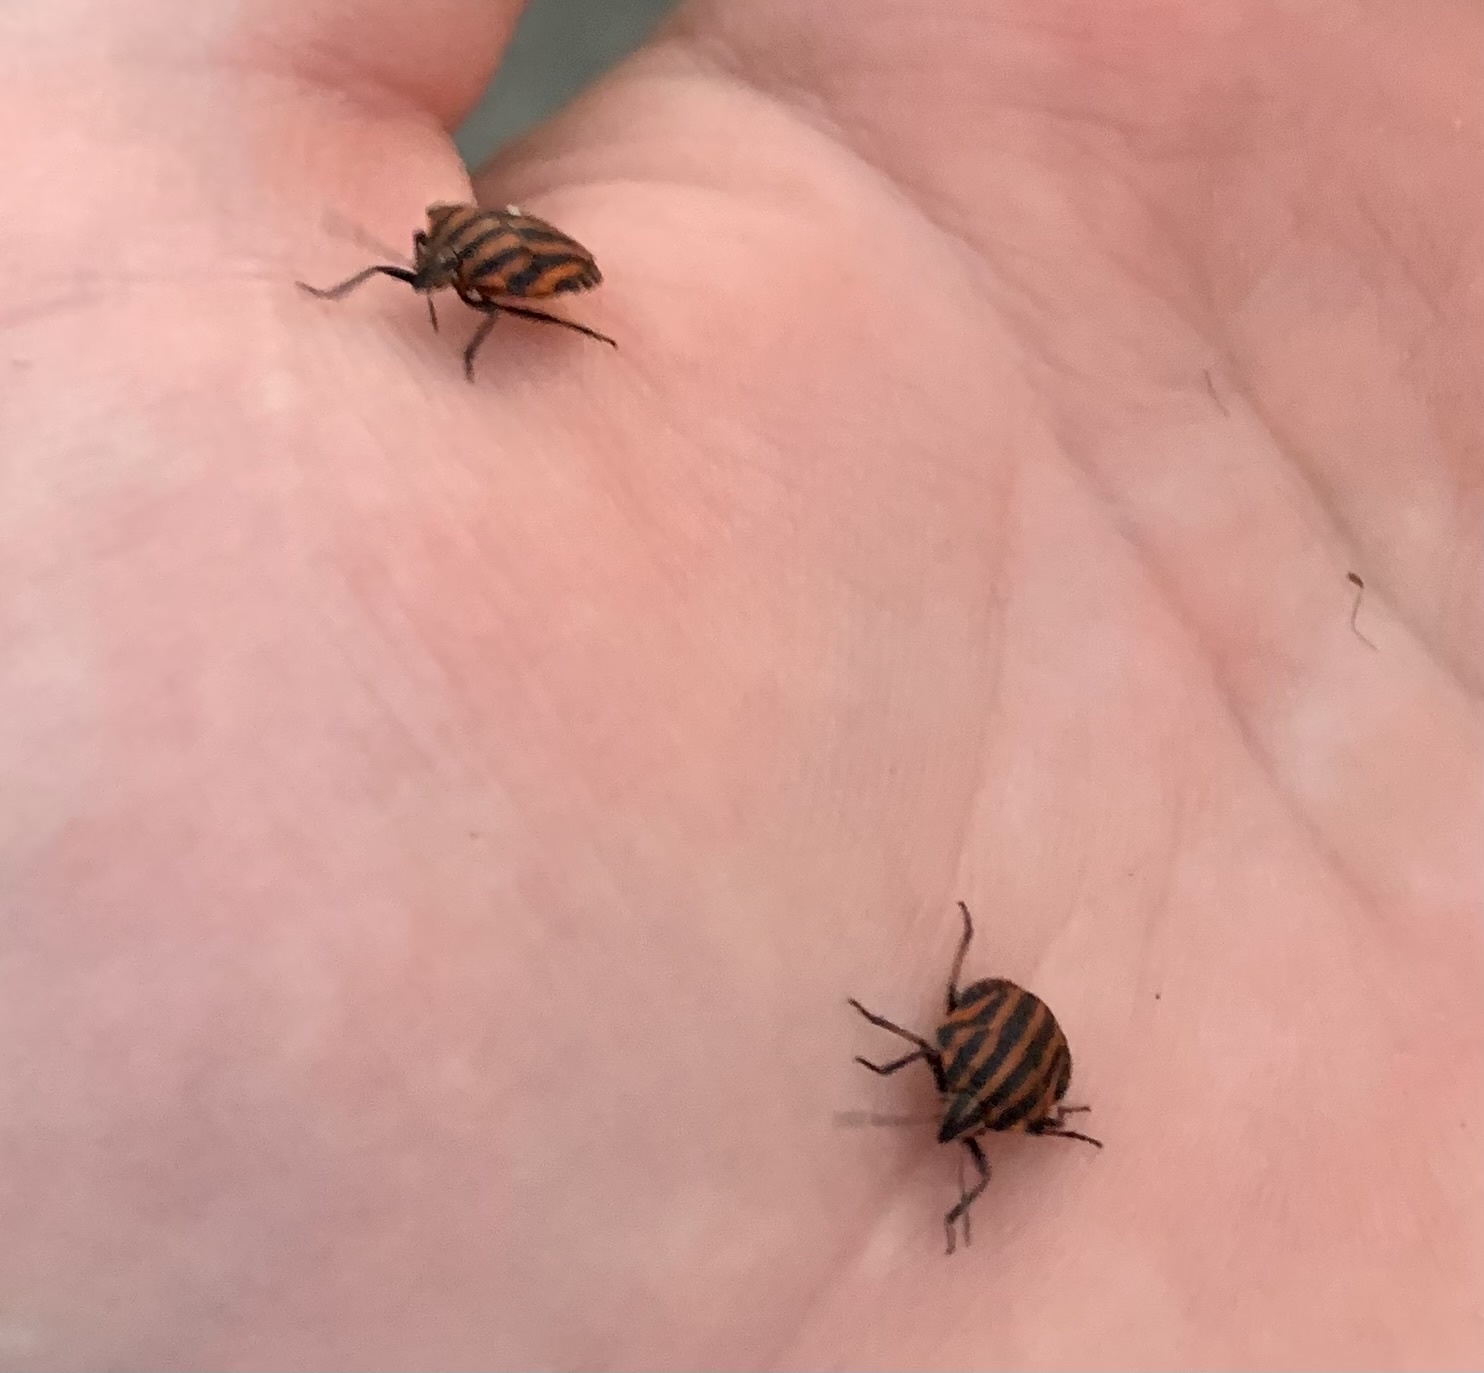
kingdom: Animalia
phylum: Arthropoda
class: Insecta
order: Hemiptera
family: Pentatomidae
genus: Graphosoma
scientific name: Graphosoma italicum
